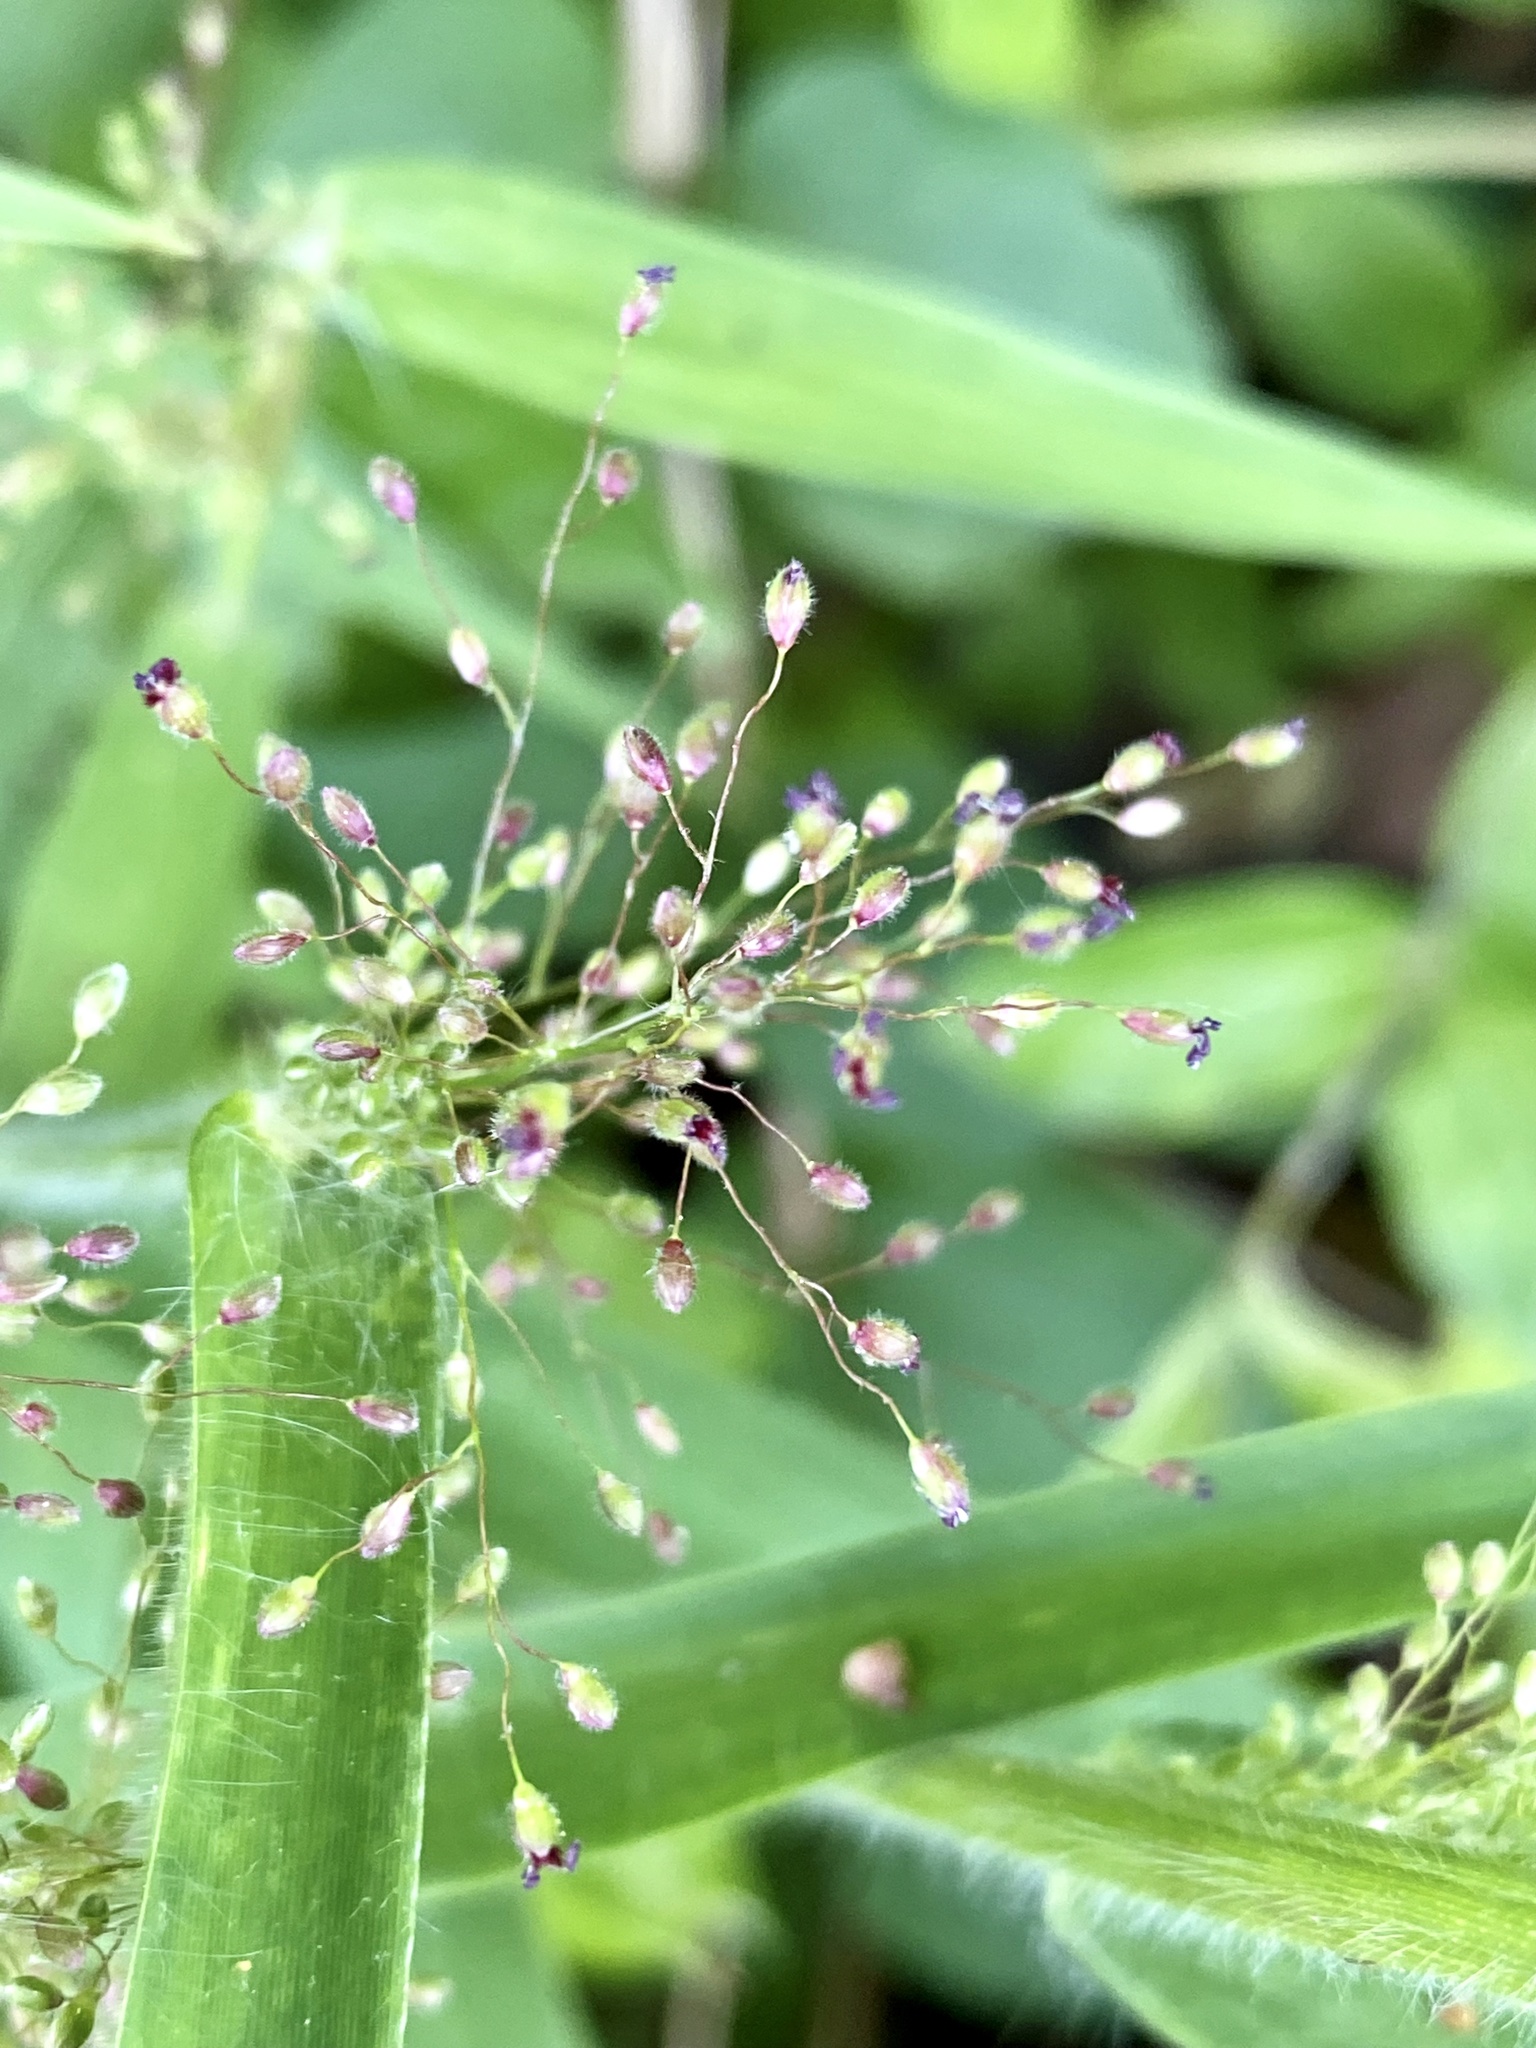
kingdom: Plantae
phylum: Tracheophyta
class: Liliopsida
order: Poales
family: Poaceae
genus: Dichanthelium
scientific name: Dichanthelium clandestinum
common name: Deer-tongue grass
